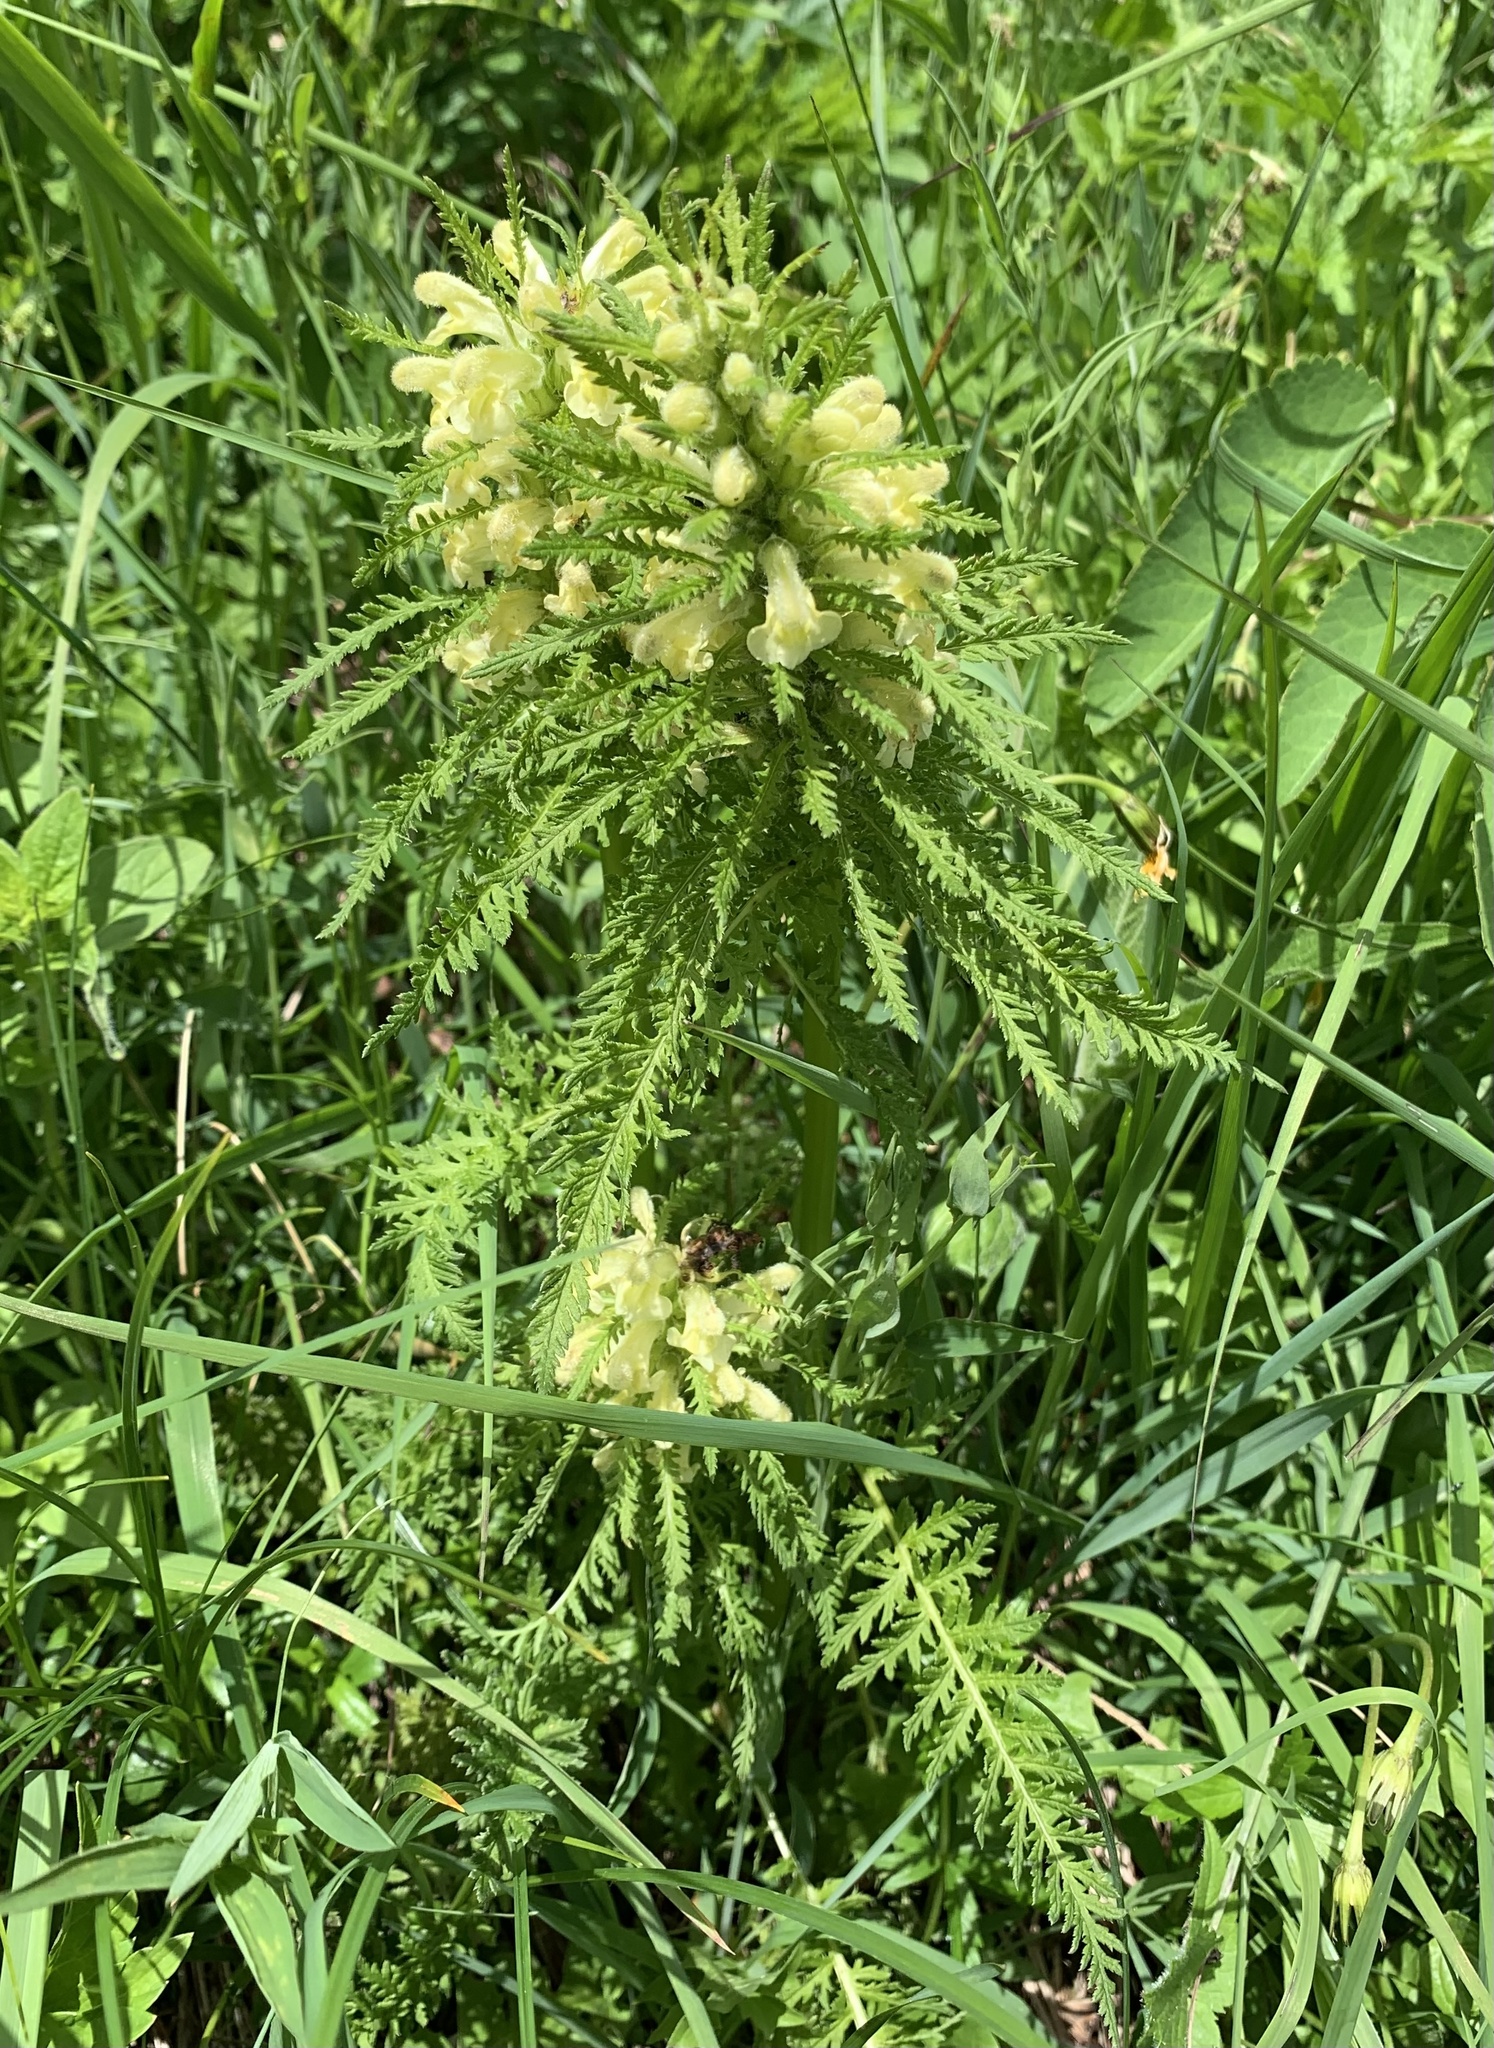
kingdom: Plantae
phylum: Tracheophyta
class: Magnoliopsida
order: Lamiales
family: Orobanchaceae
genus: Pedicularis
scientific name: Pedicularis foliosa
